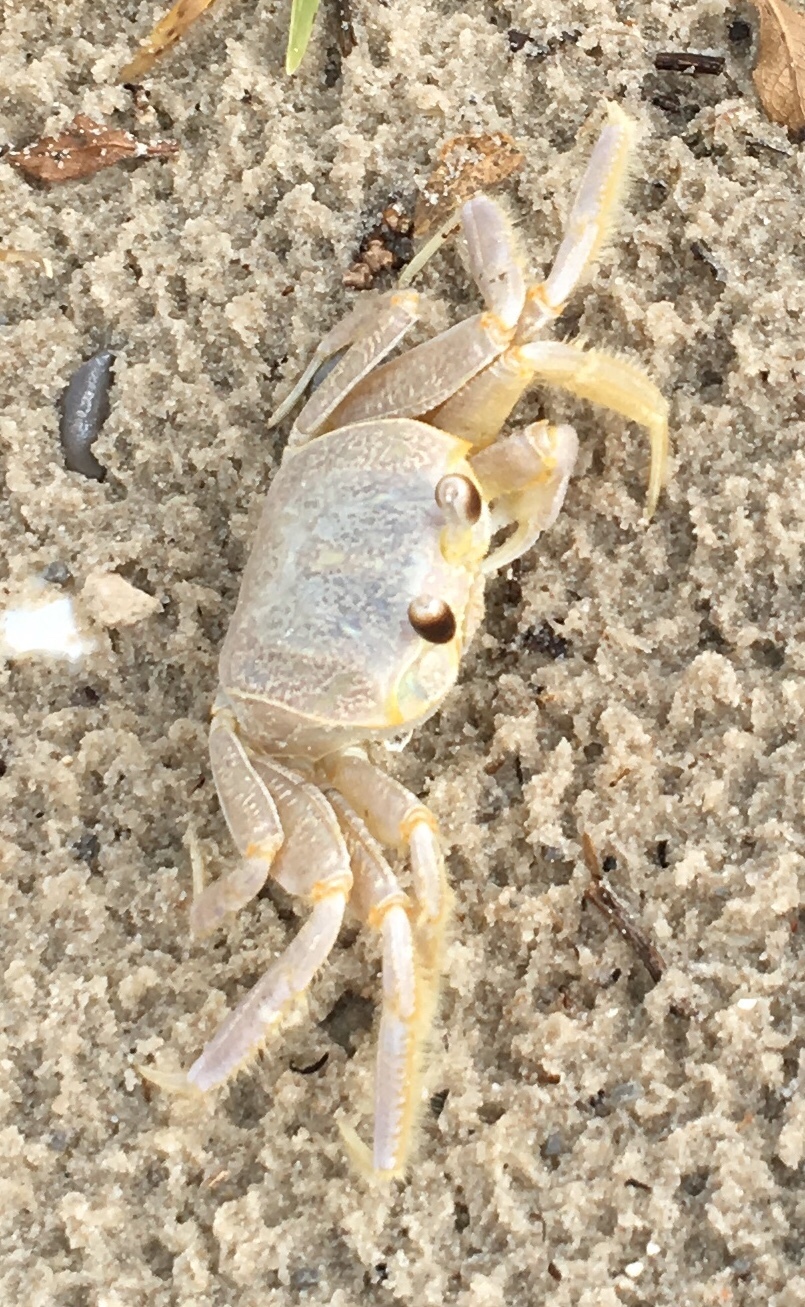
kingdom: Animalia
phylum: Arthropoda
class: Malacostraca
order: Decapoda
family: Ocypodidae
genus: Ocypode
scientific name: Ocypode quadrata
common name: Ghost crab
